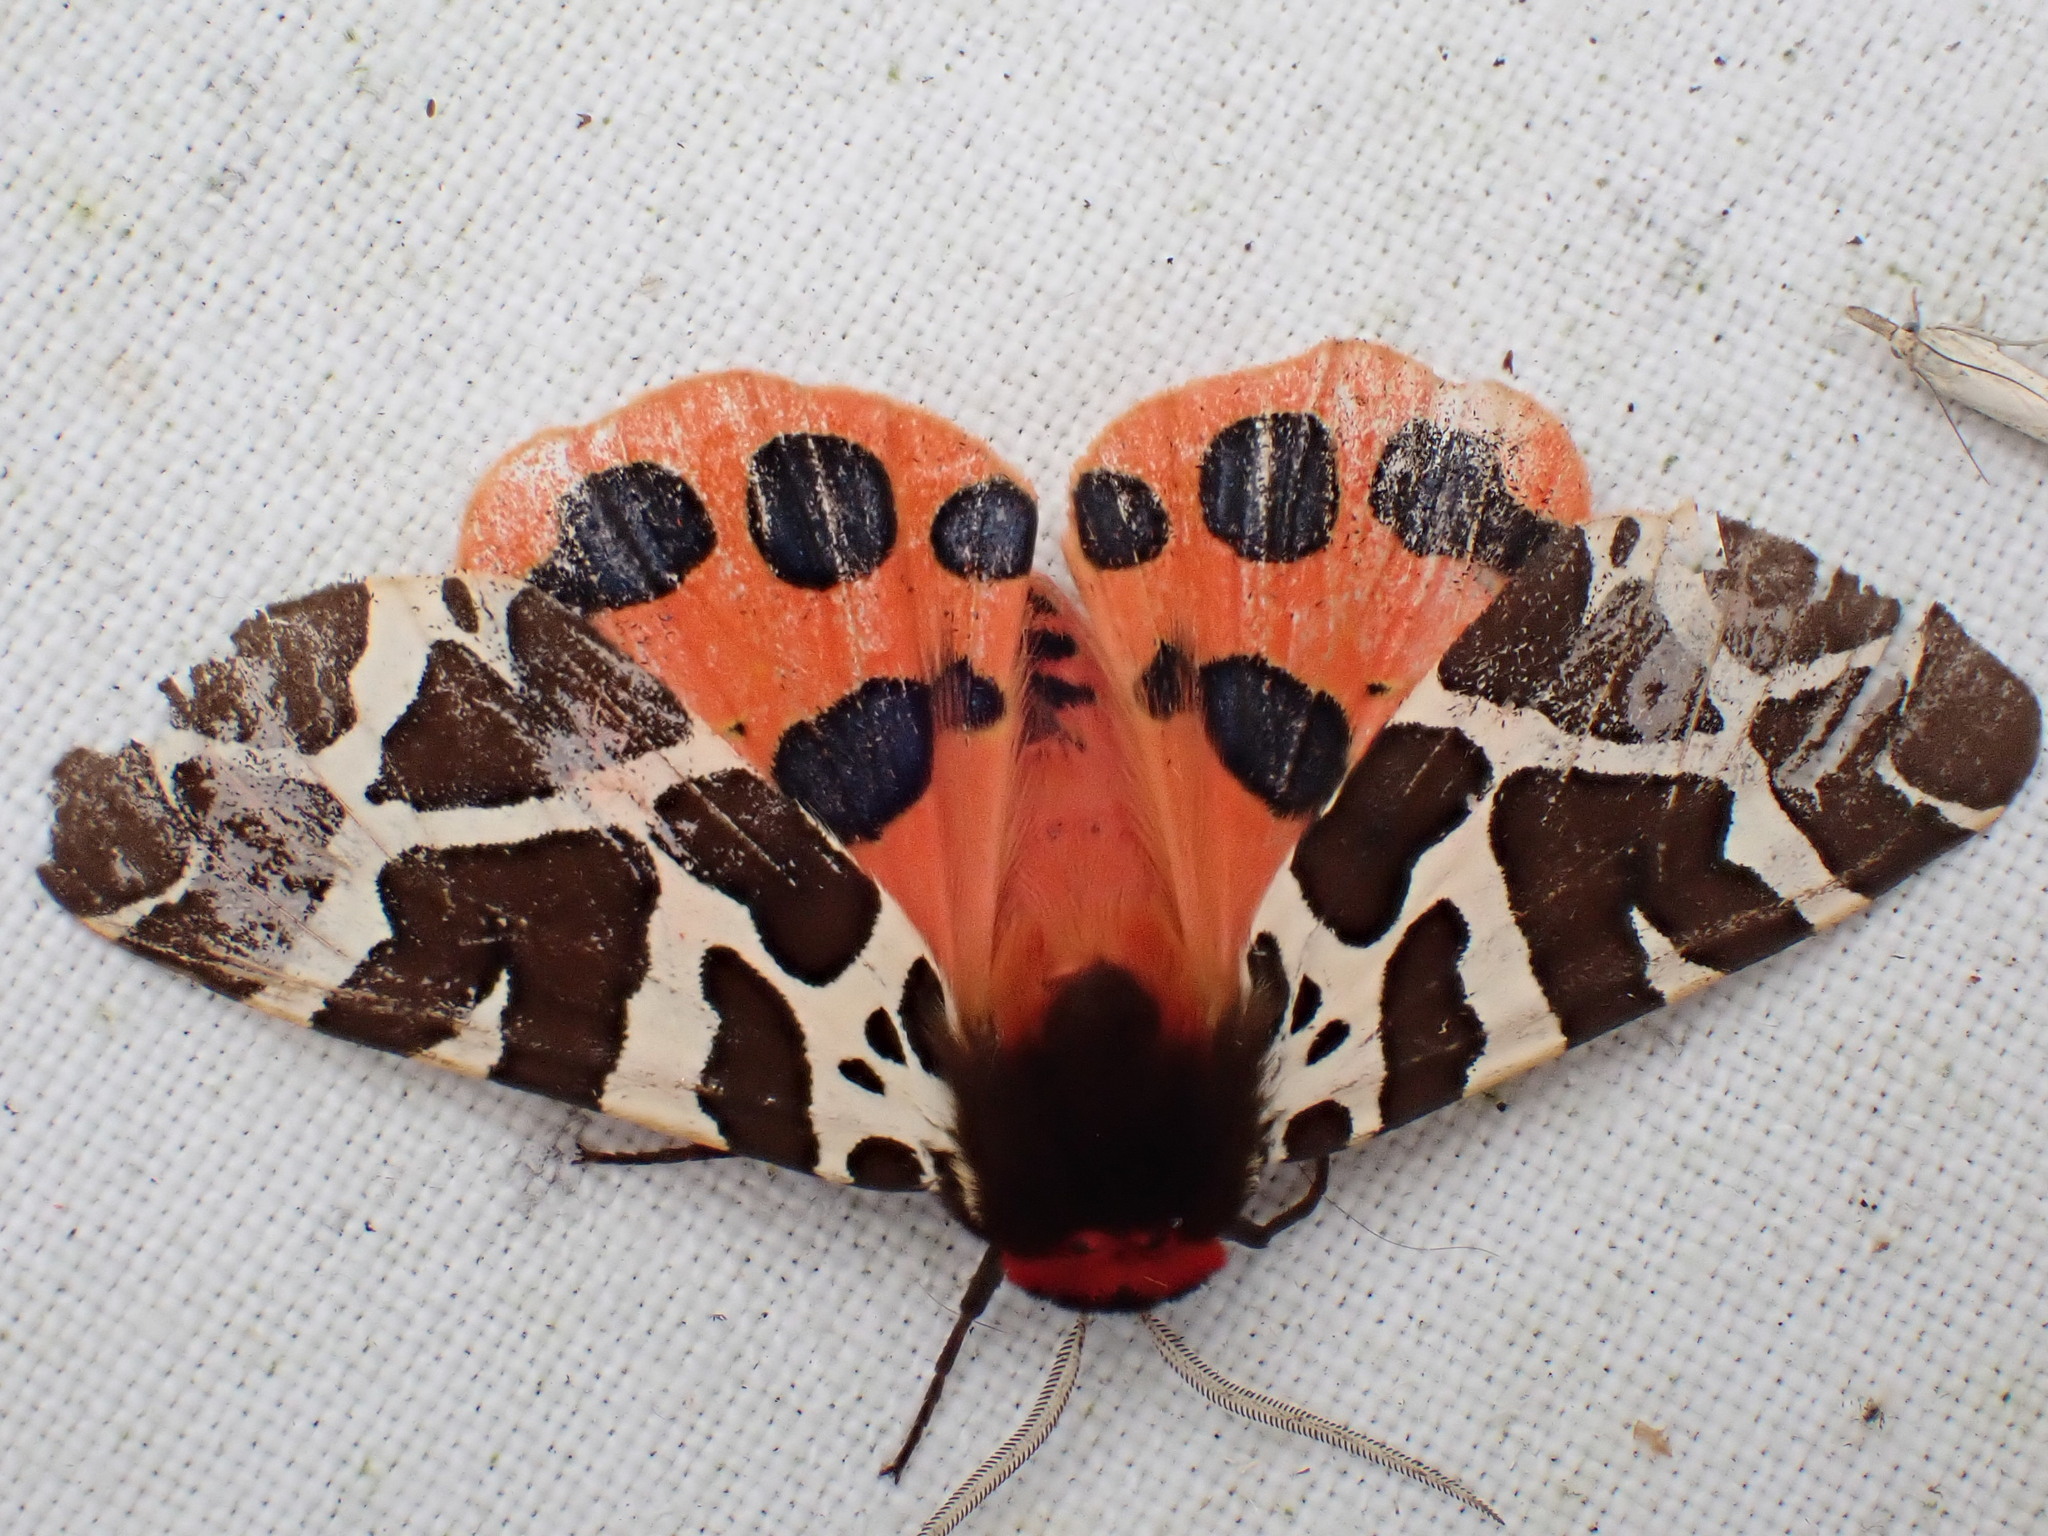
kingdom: Animalia
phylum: Arthropoda
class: Insecta
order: Lepidoptera
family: Erebidae
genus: Arctia
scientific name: Arctia caja
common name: Garden tiger
